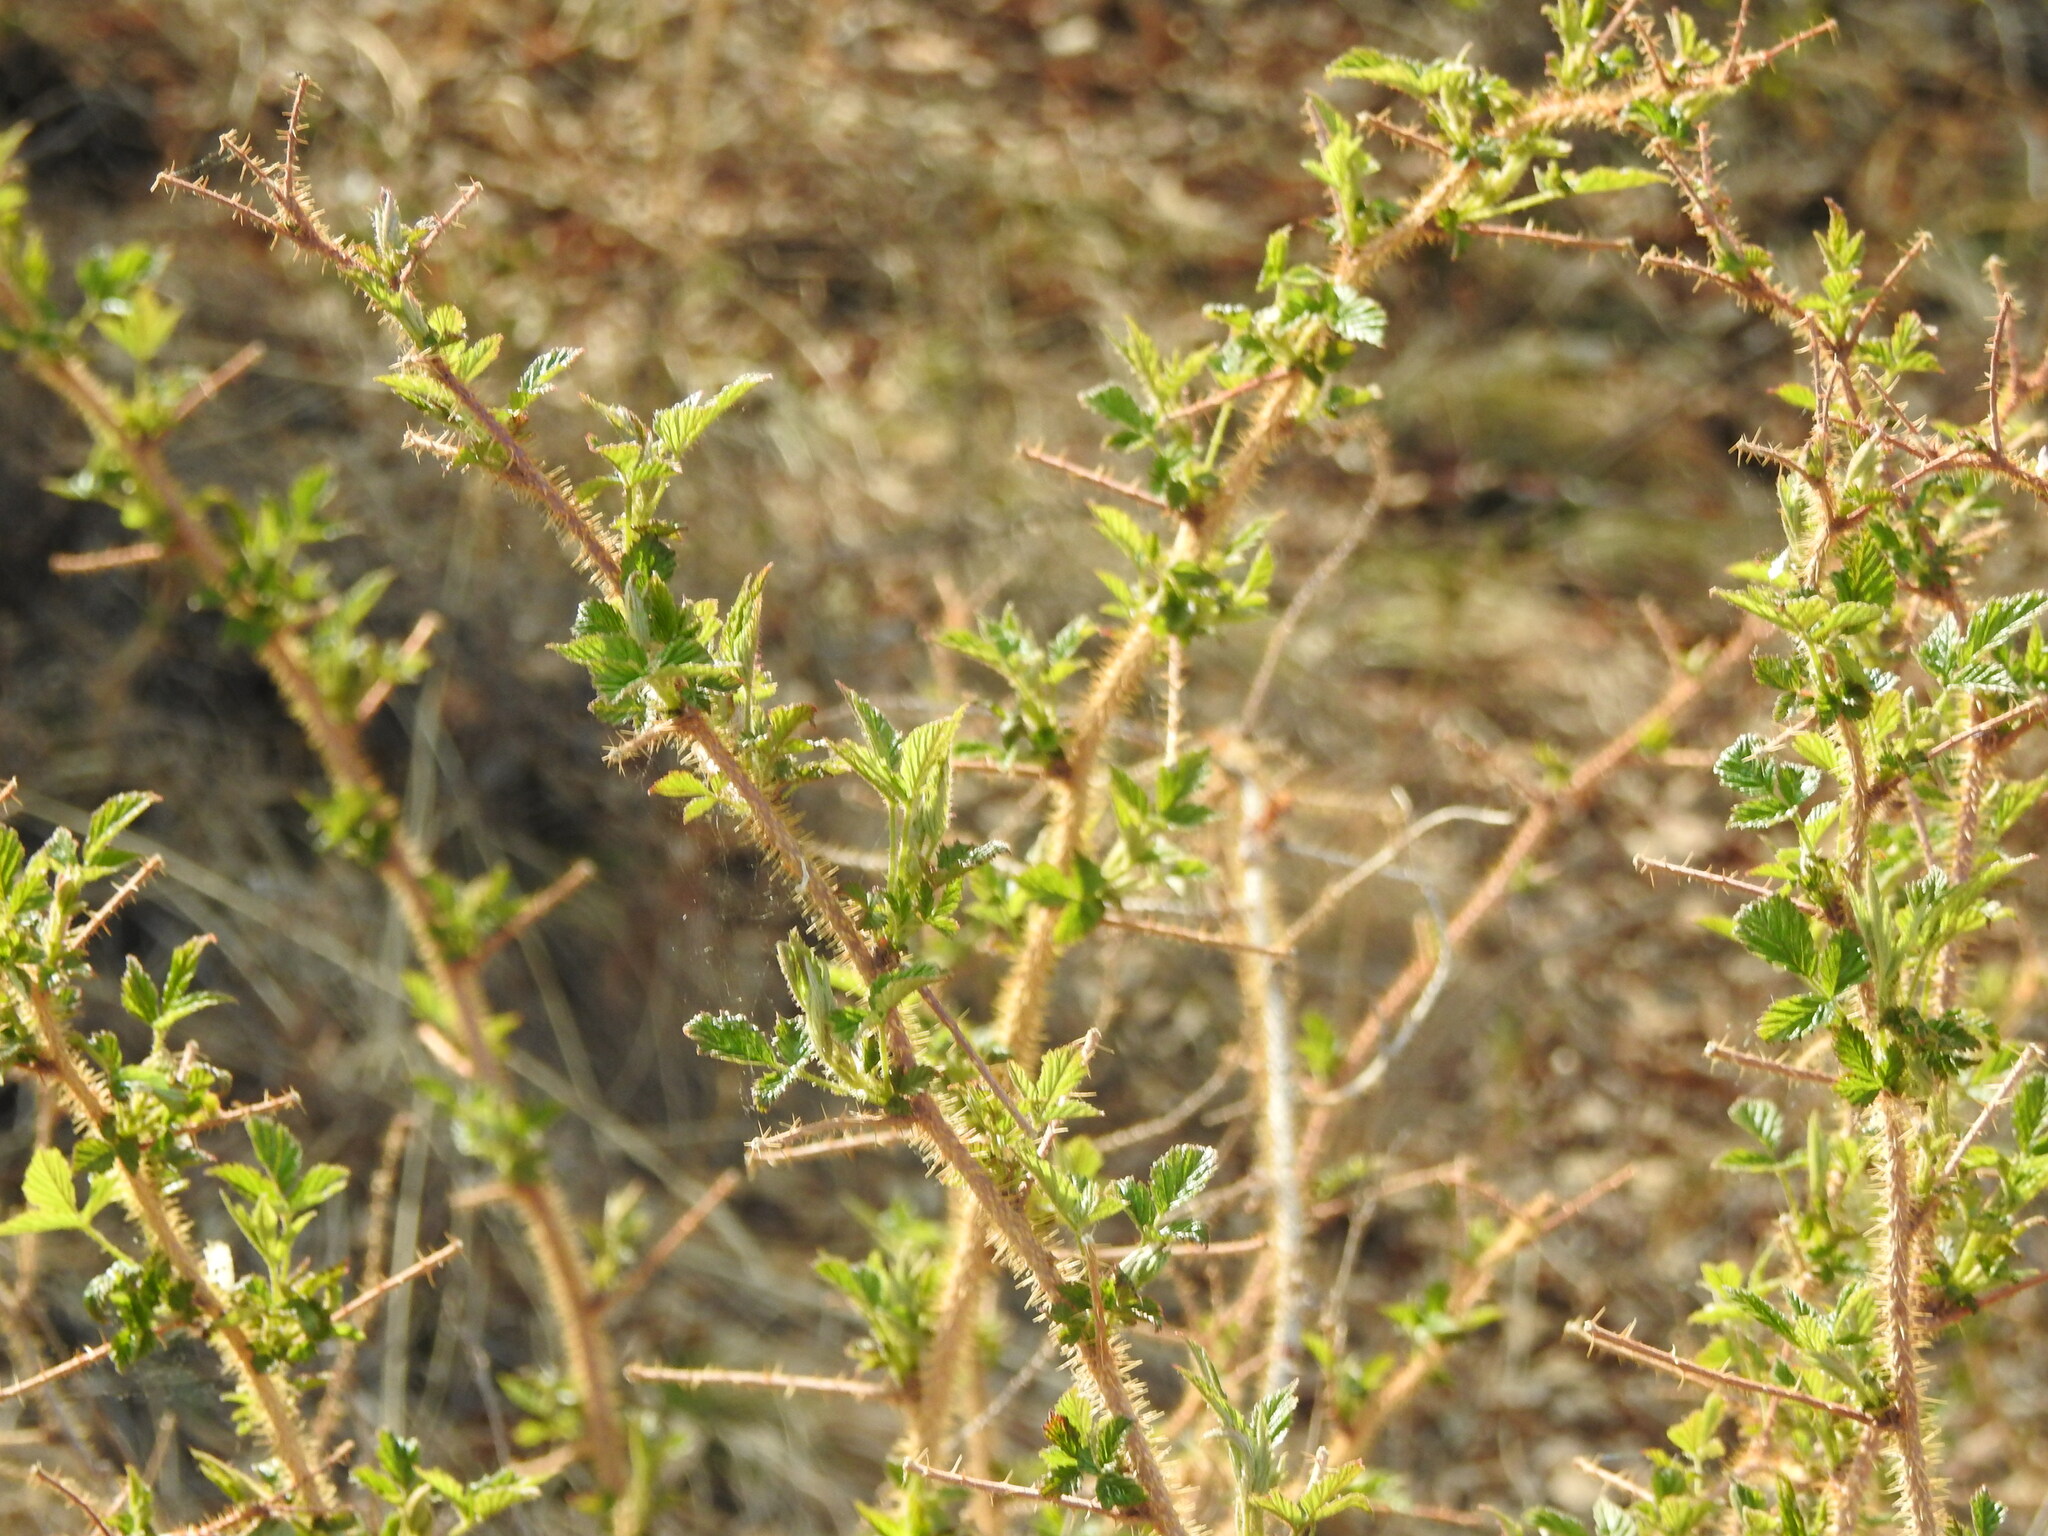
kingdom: Plantae
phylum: Tracheophyta
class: Magnoliopsida
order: Rosales
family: Rosaceae
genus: Rubus
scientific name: Rubus sachalinensis
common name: Red raspberry
